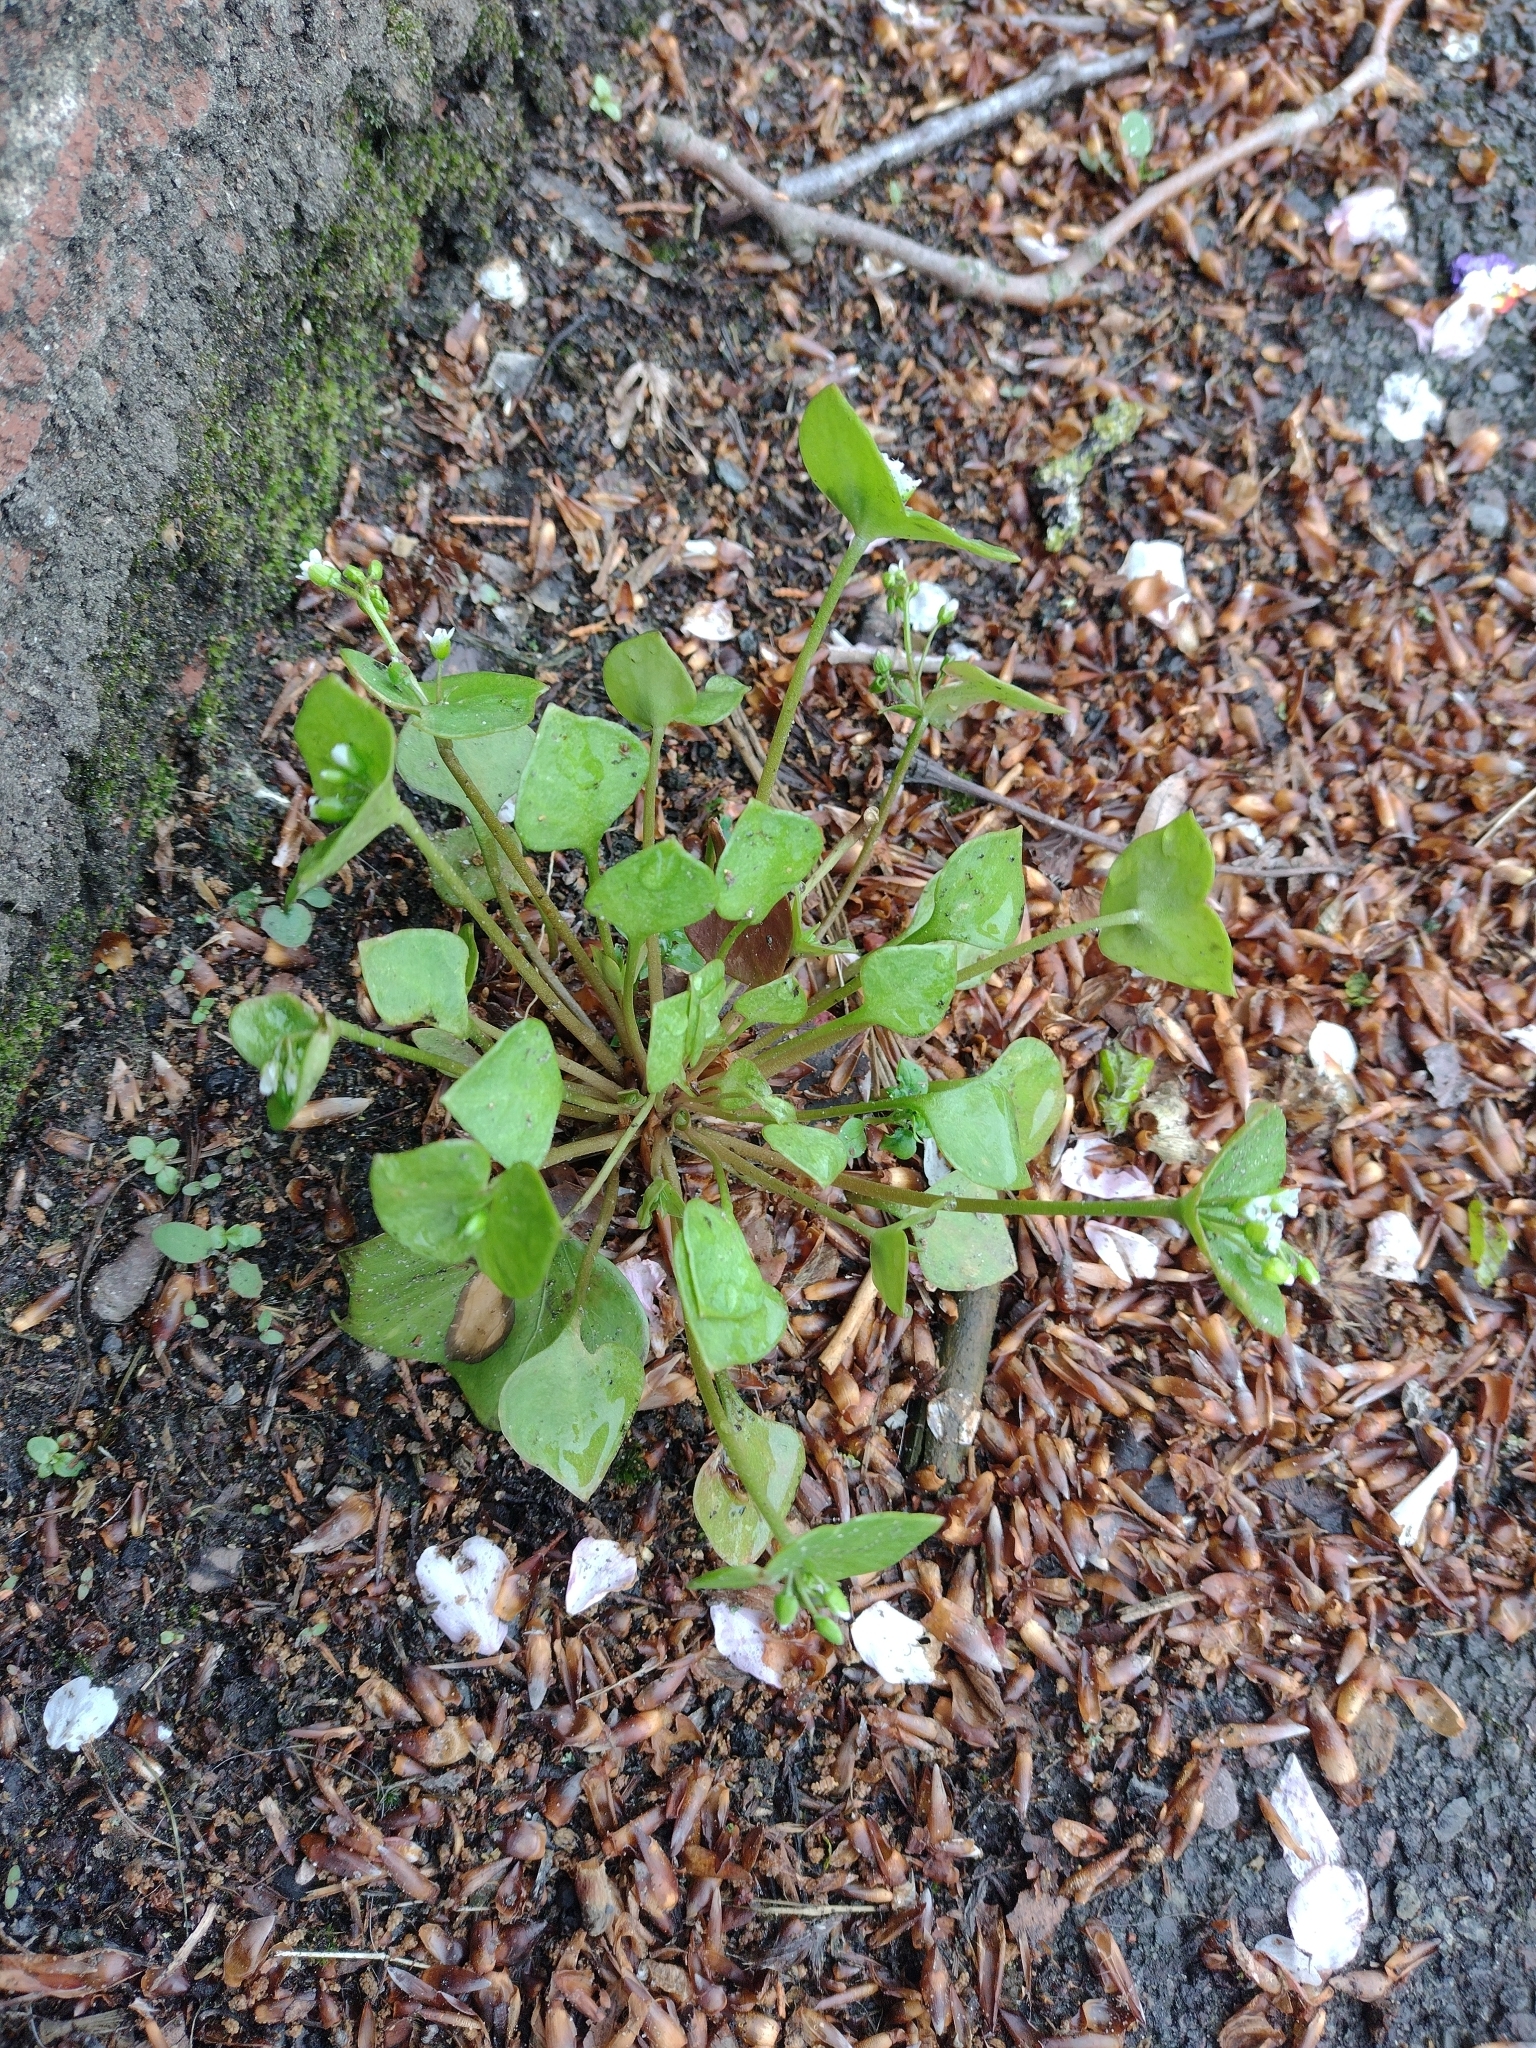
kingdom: Plantae
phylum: Tracheophyta
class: Magnoliopsida
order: Caryophyllales
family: Montiaceae
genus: Claytonia
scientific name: Claytonia perfoliata
